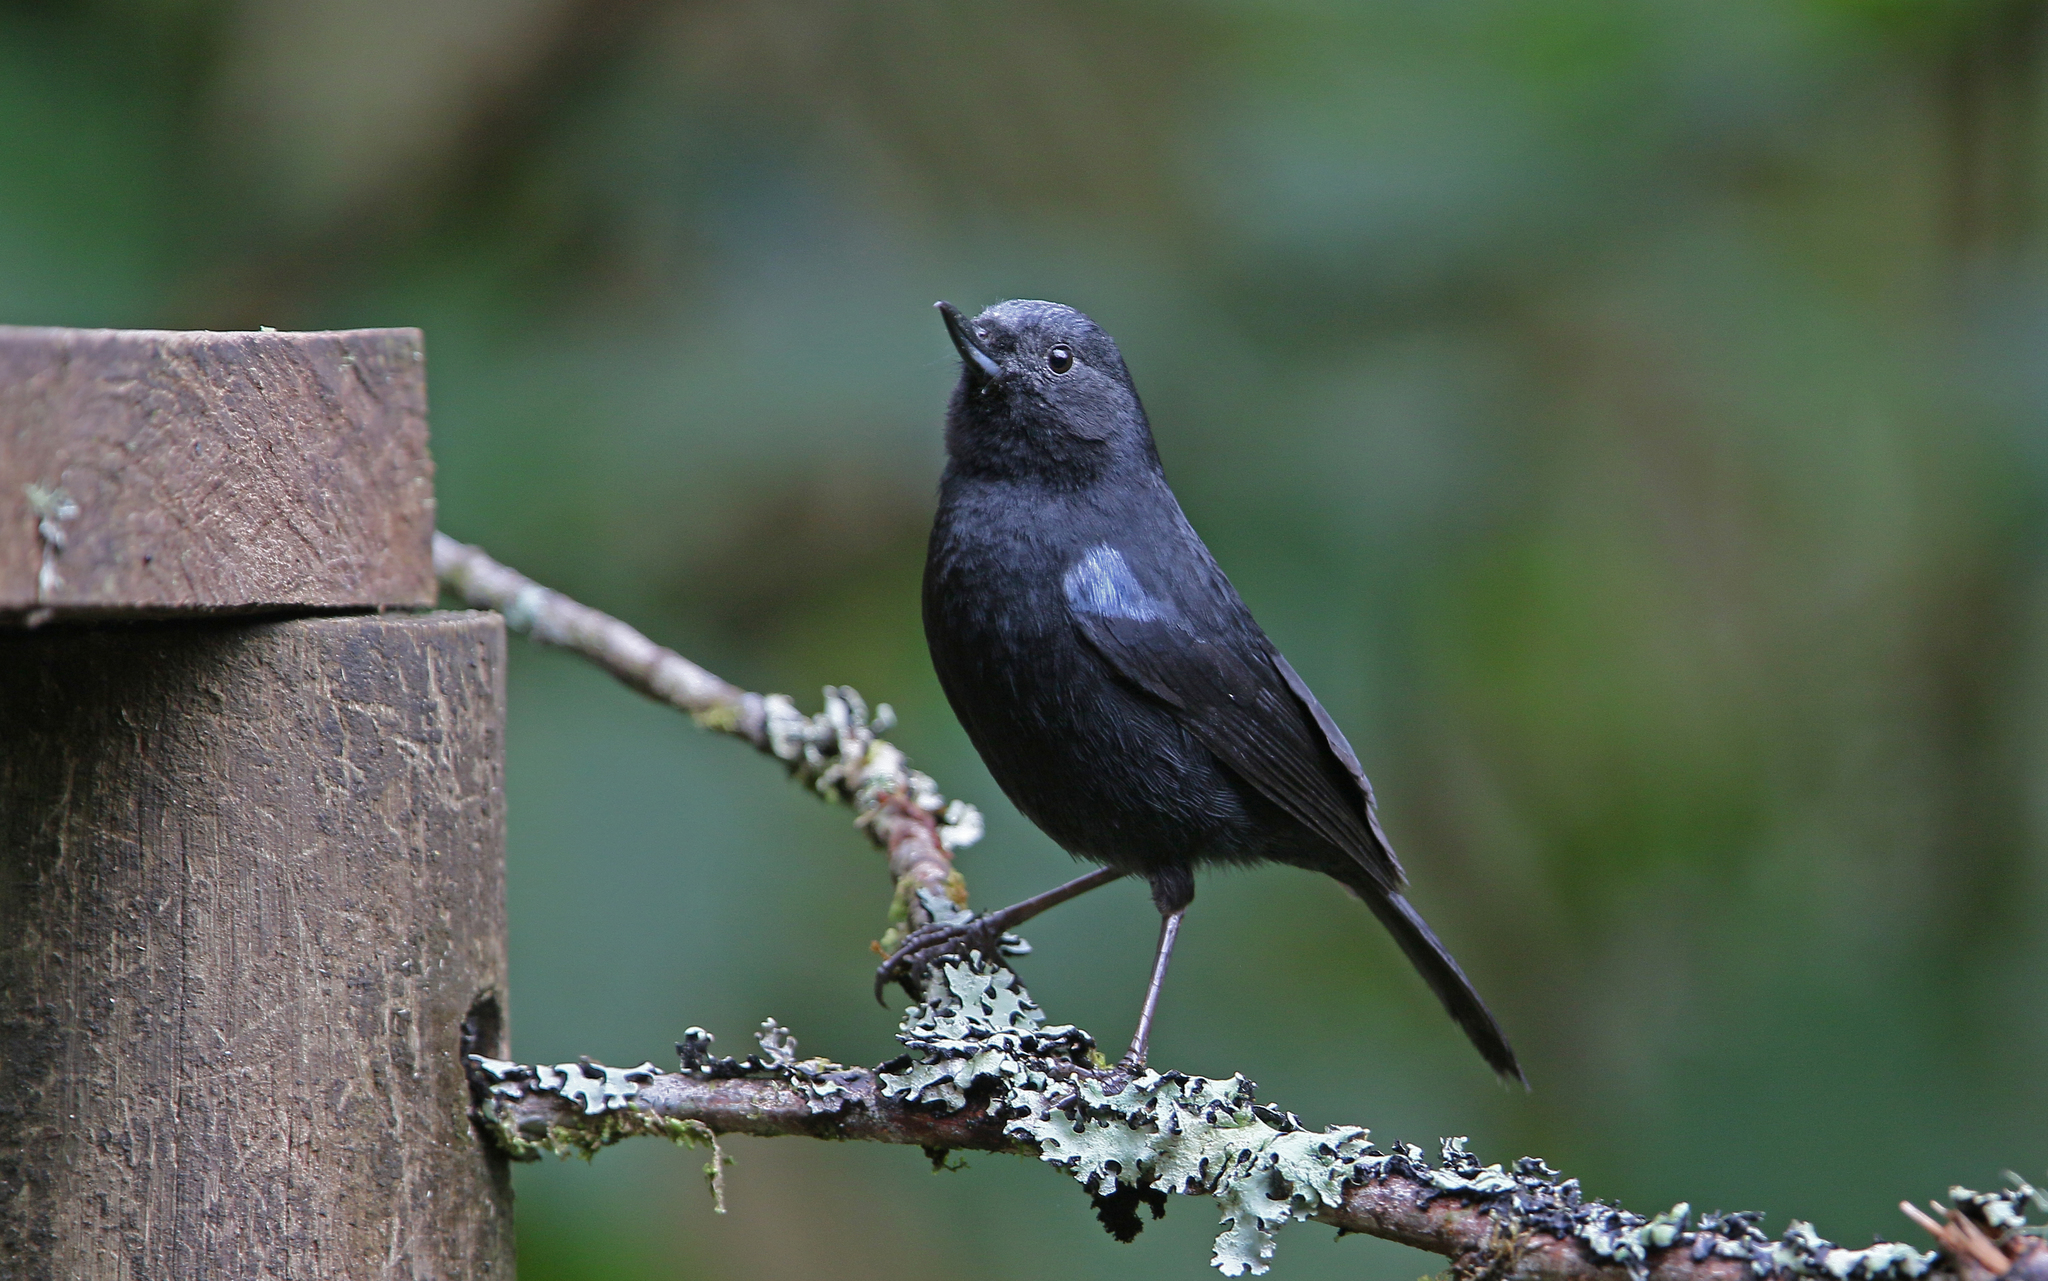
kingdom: Animalia
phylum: Chordata
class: Aves
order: Passeriformes
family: Thraupidae
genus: Diglossa
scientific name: Diglossa lafresnayii
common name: Glossy flowerpiercer
